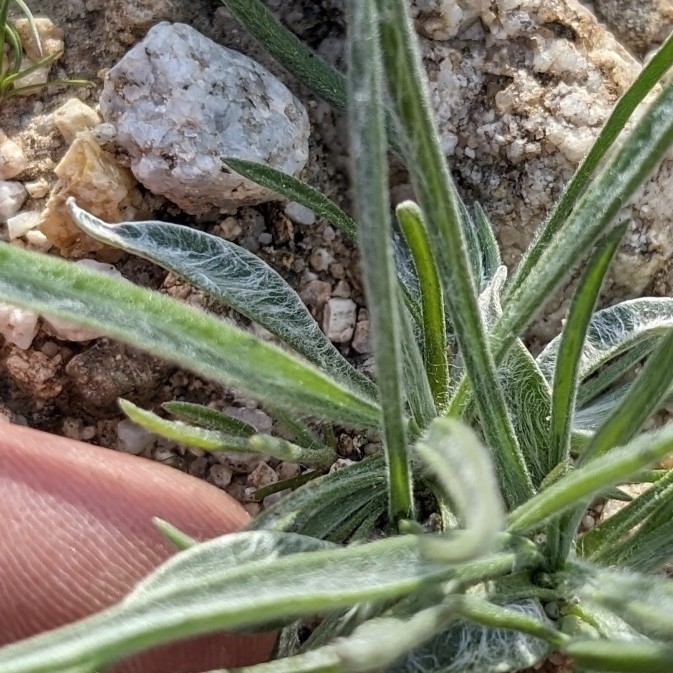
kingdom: Plantae
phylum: Tracheophyta
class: Magnoliopsida
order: Lamiales
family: Plantaginaceae
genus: Plantago
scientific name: Plantago ovata
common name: Blond plantain
